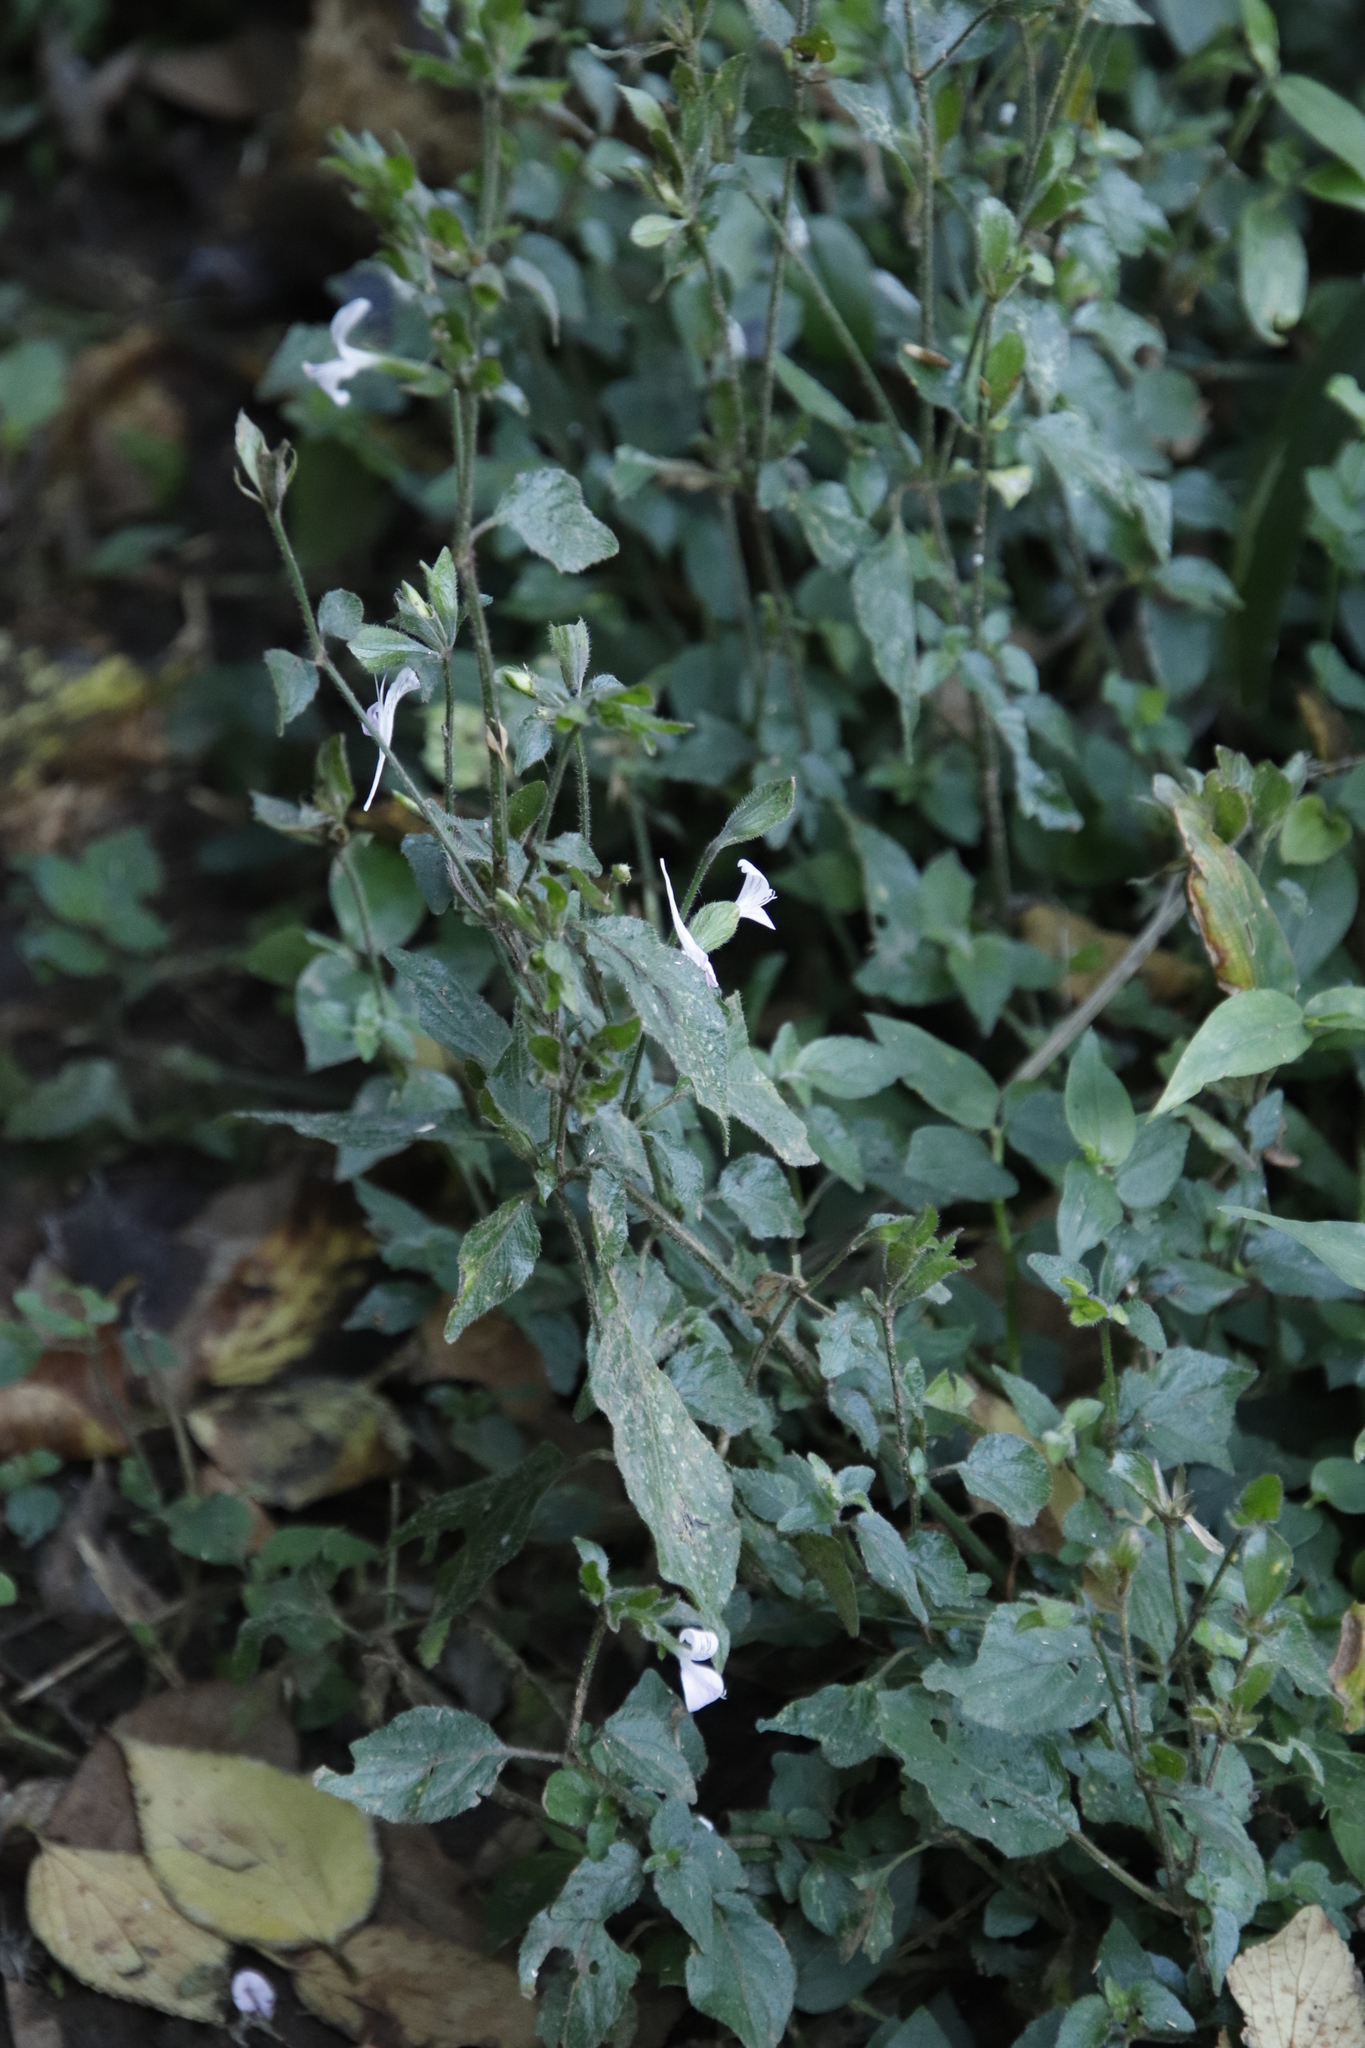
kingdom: Plantae
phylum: Tracheophyta
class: Magnoliopsida
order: Lamiales
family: Acanthaceae
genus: Hypoestes
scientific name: Hypoestes triflora
